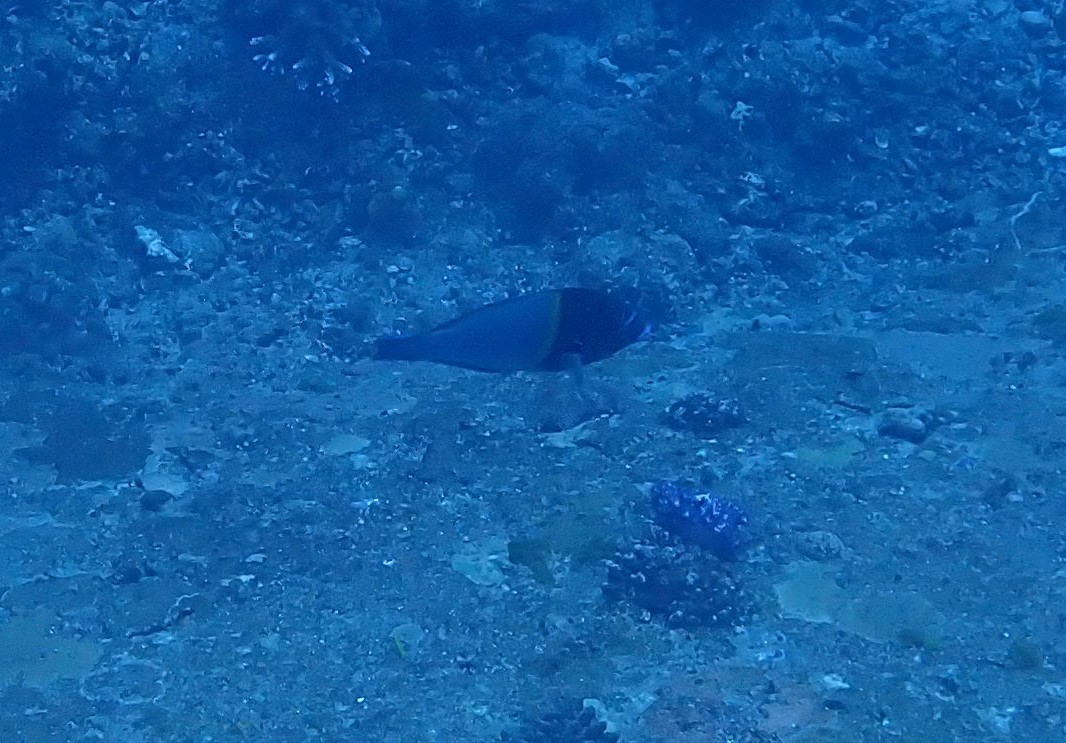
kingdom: Animalia
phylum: Chordata
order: Perciformes
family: Labridae
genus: Anampses
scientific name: Anampses caeruleopunctatus
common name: Bluespotted wrasse
